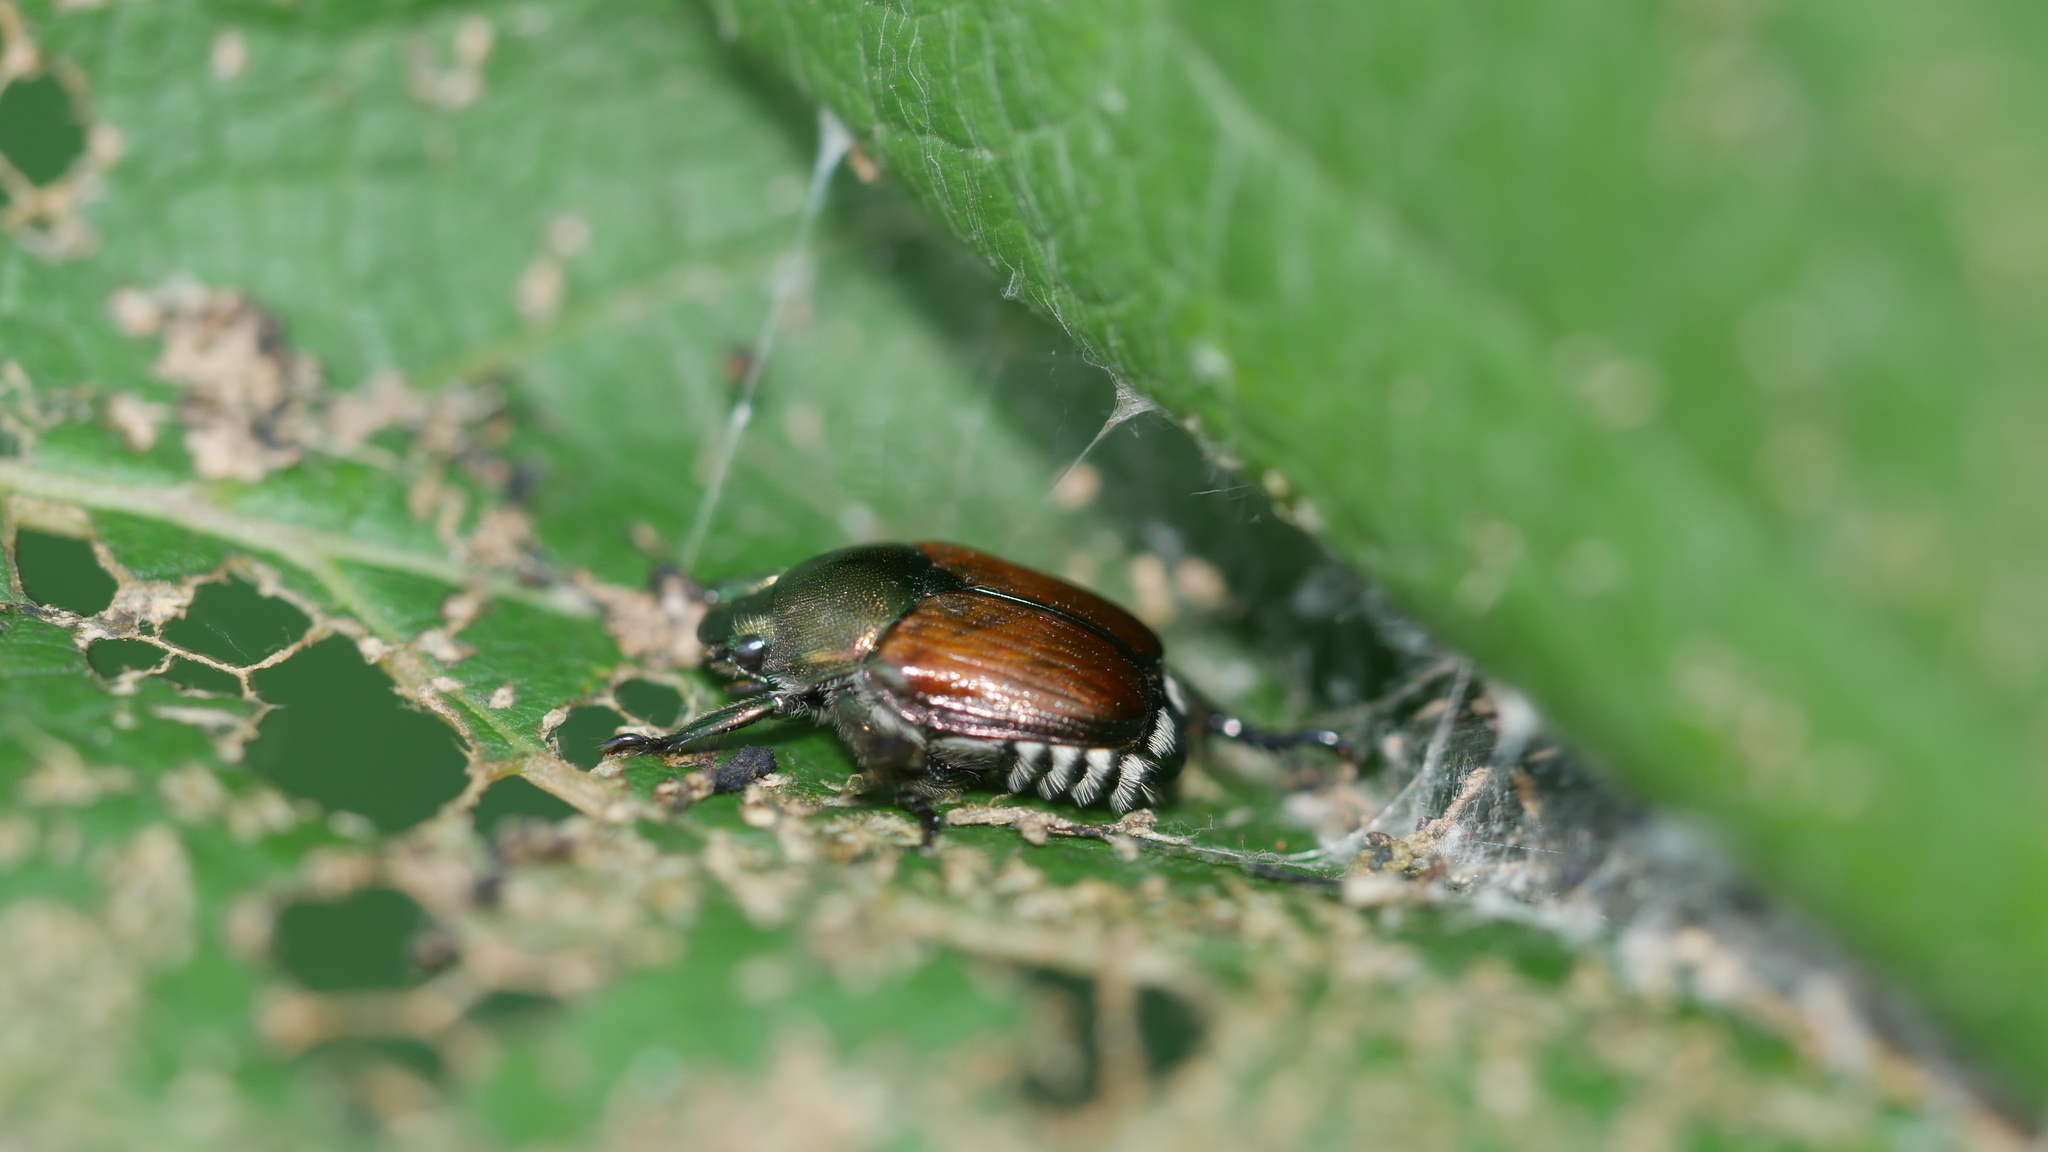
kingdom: Animalia
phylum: Arthropoda
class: Insecta
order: Coleoptera
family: Scarabaeidae
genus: Popillia
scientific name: Popillia japonica
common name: Japanese beetle
